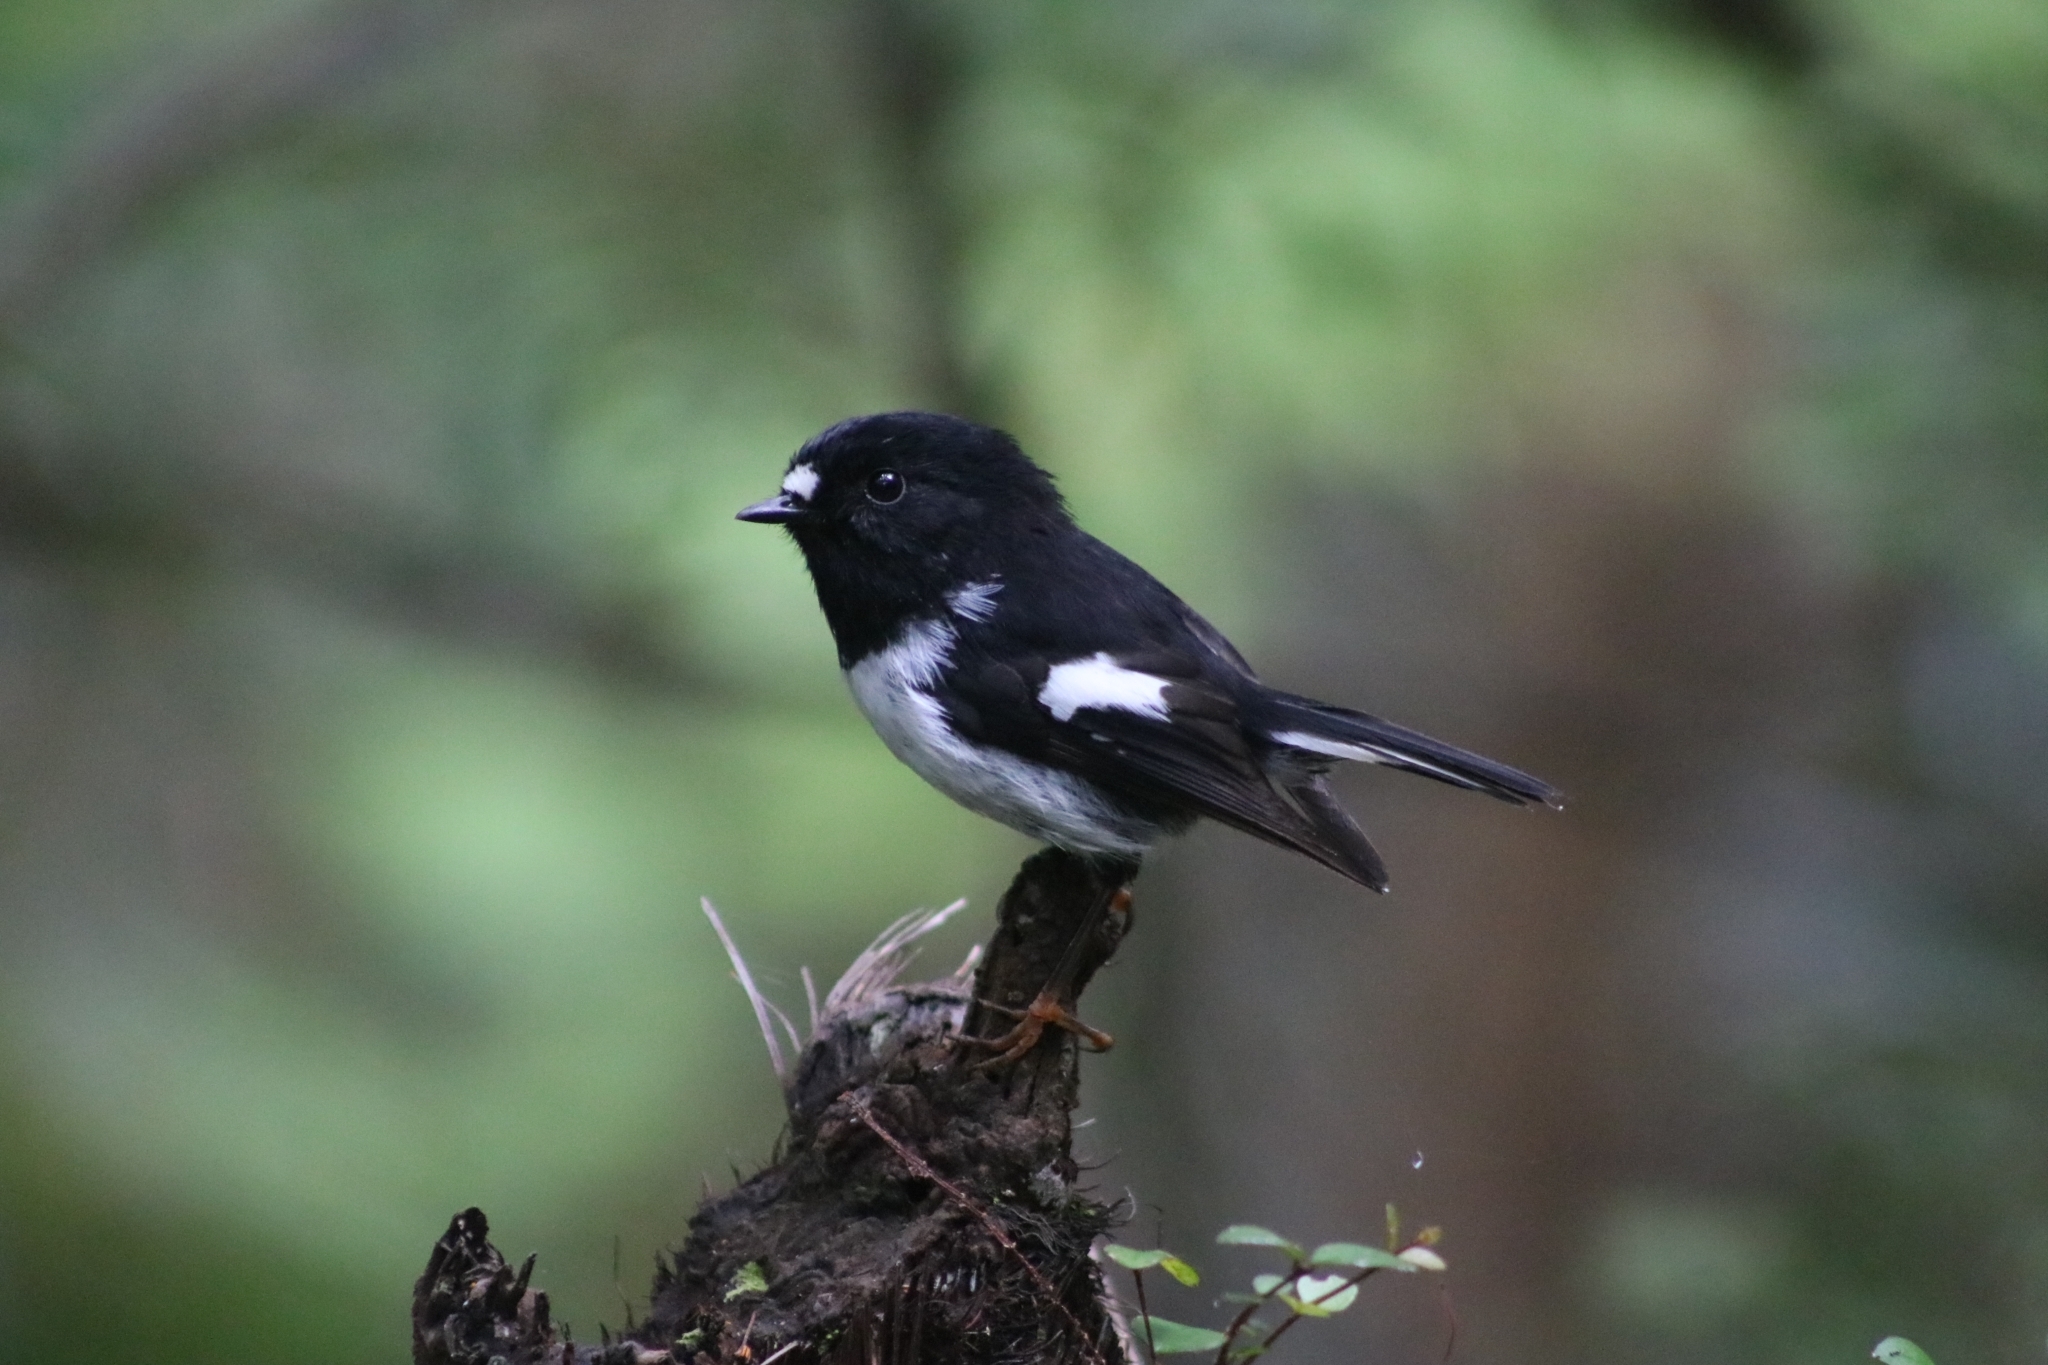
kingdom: Animalia
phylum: Chordata
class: Aves
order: Passeriformes
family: Petroicidae
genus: Petroica
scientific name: Petroica macrocephala
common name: Tomtit
